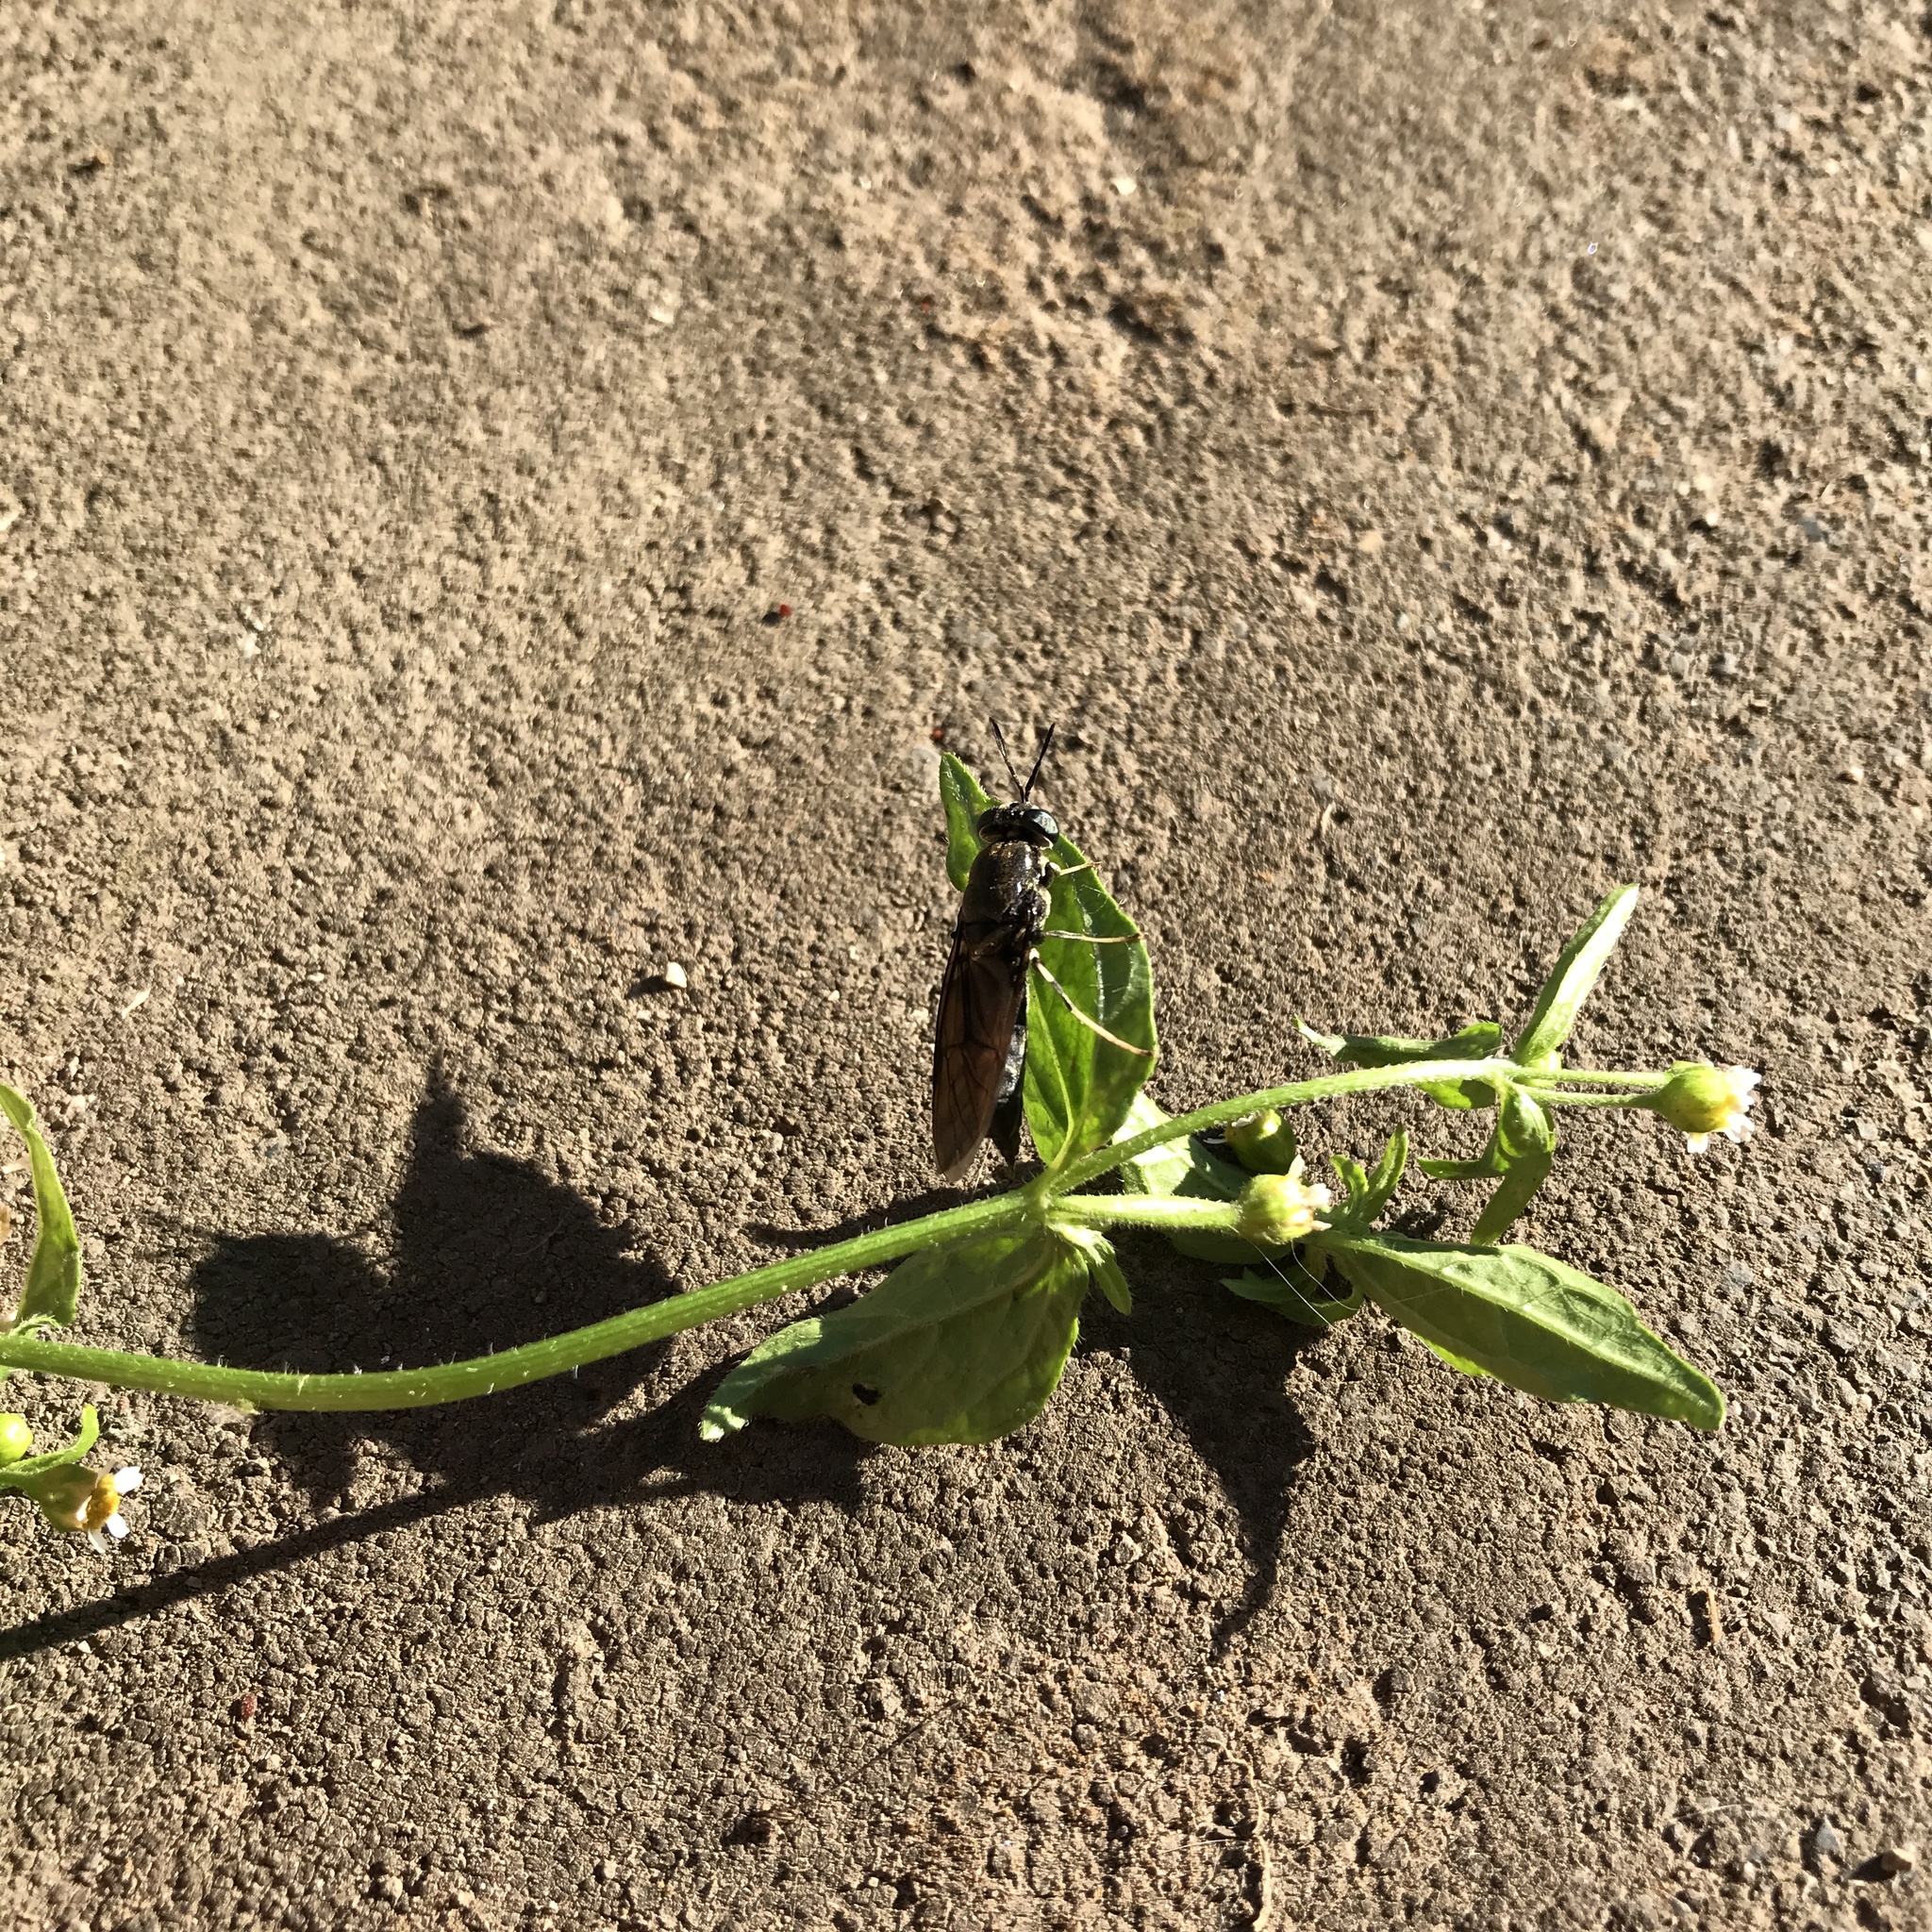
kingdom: Animalia
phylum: Arthropoda
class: Insecta
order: Diptera
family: Stratiomyidae
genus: Hermetia
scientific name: Hermetia illucens
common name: Black soldier fly
